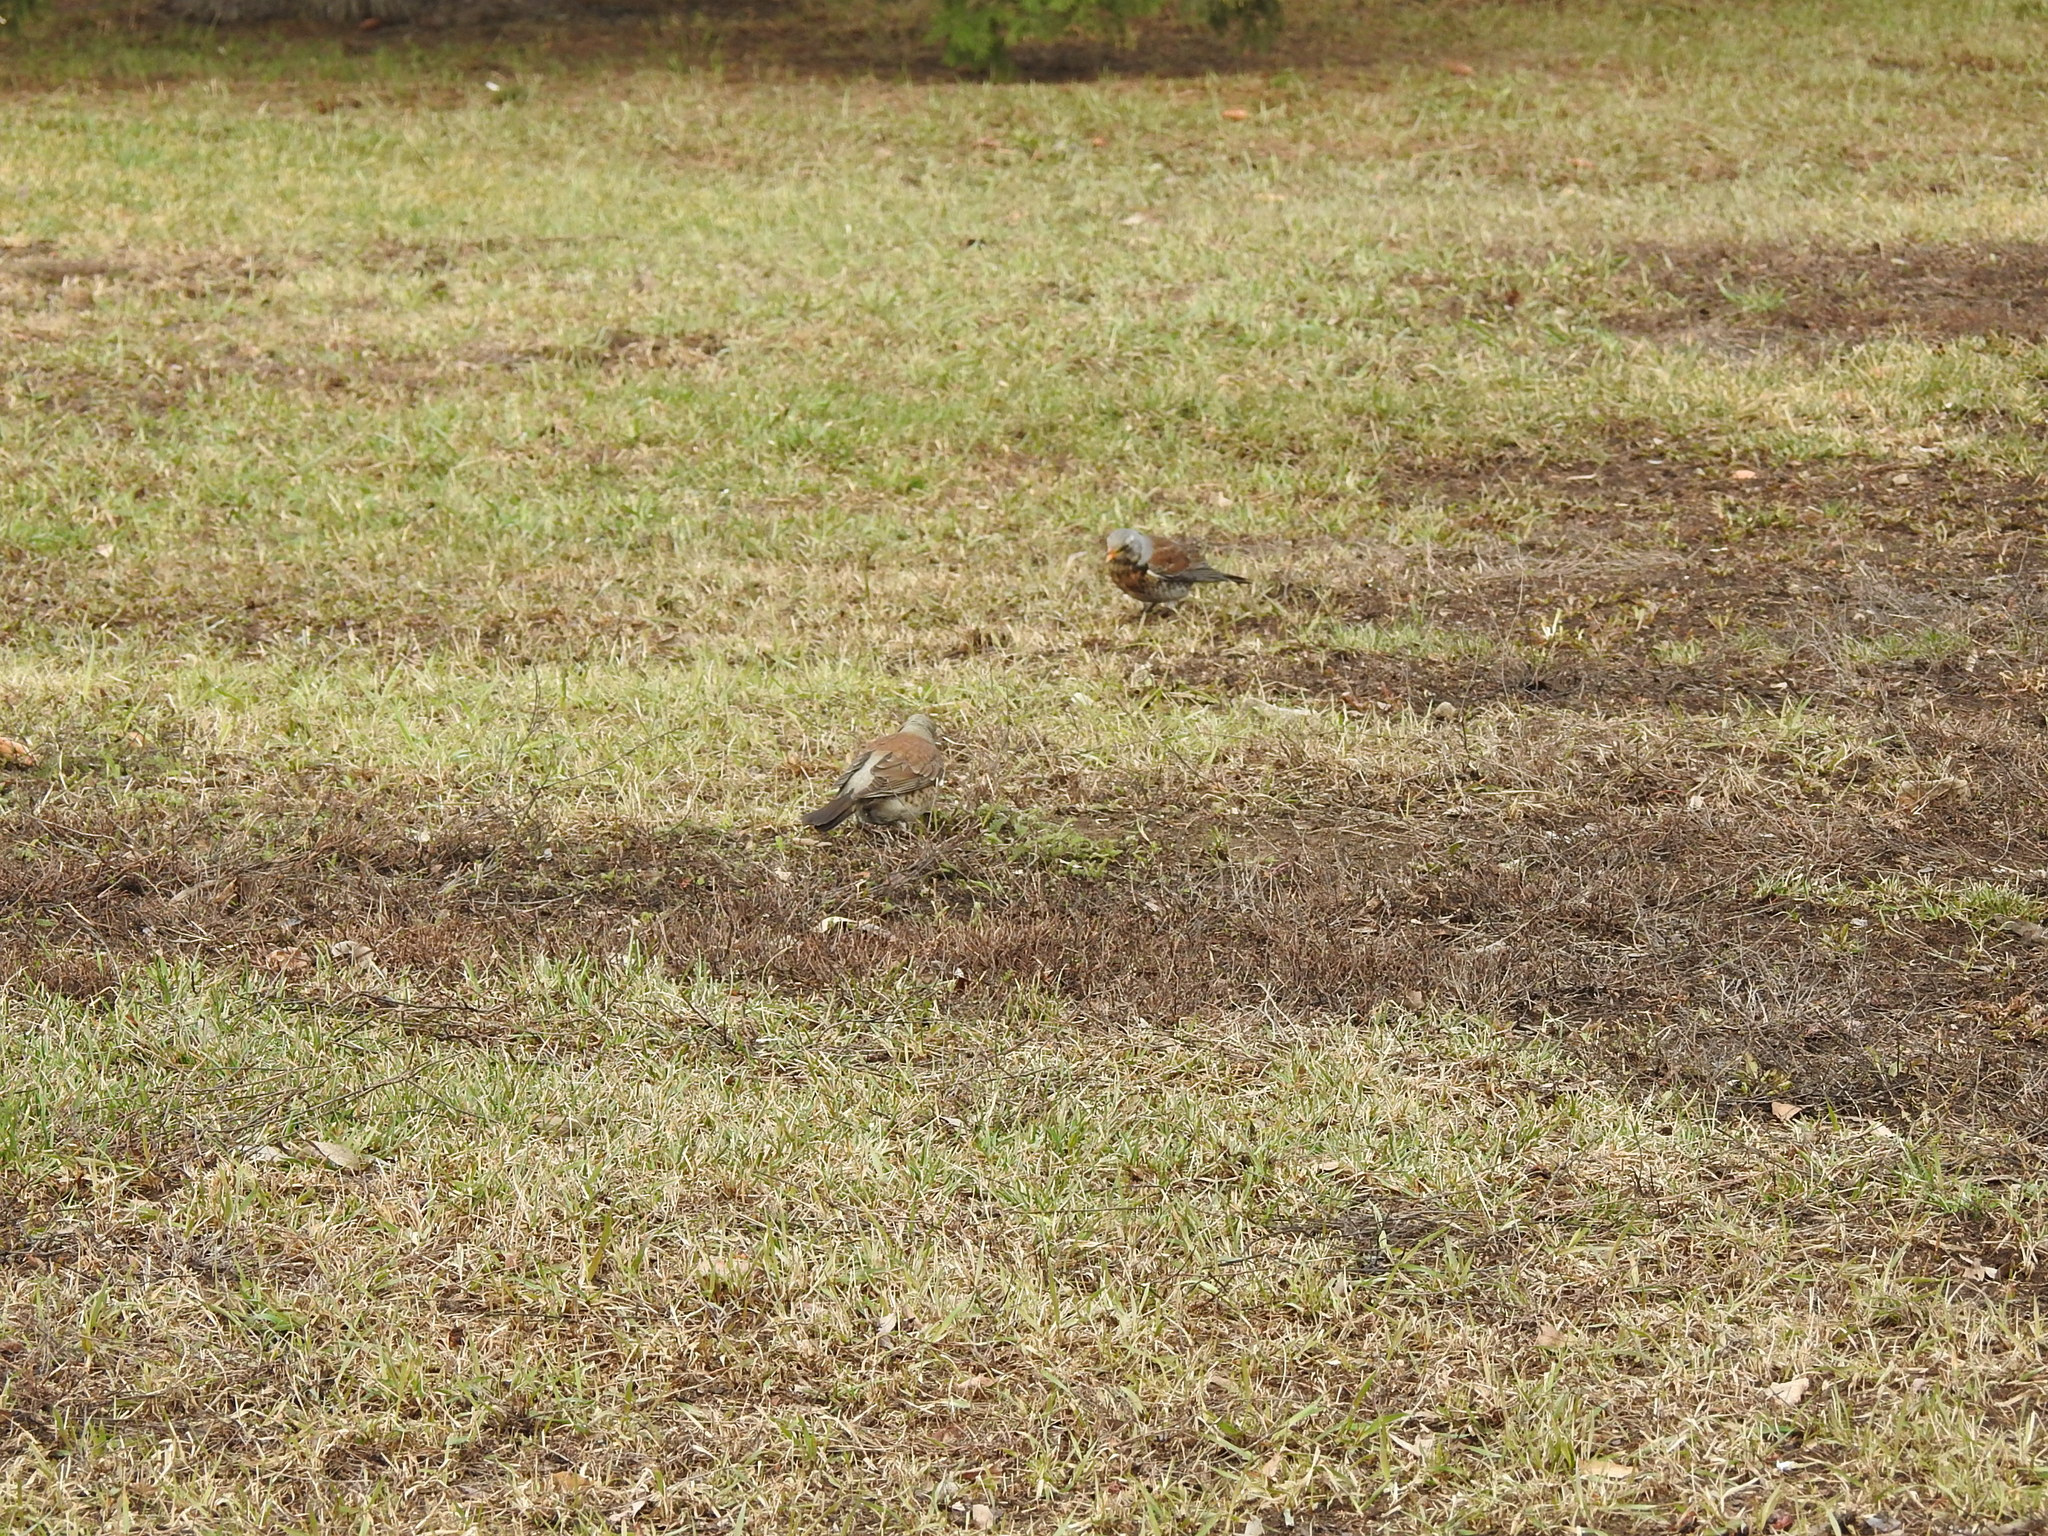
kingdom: Animalia
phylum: Chordata
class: Aves
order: Passeriformes
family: Turdidae
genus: Turdus
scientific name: Turdus pilaris
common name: Fieldfare
